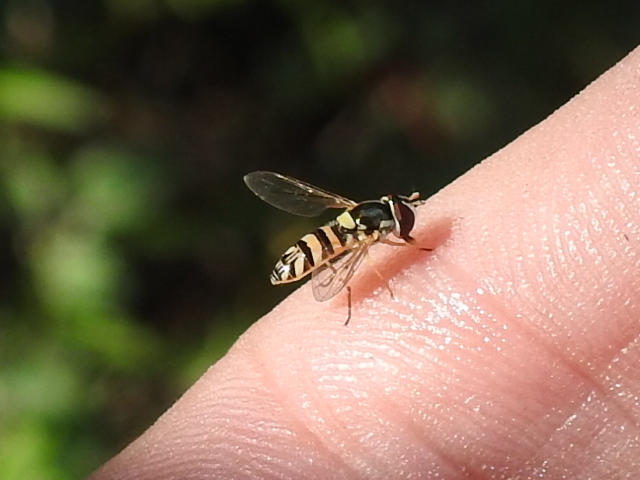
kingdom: Animalia
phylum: Arthropoda
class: Insecta
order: Diptera
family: Syrphidae
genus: Allograpta
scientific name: Allograpta obliqua
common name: Common oblique syrphid
